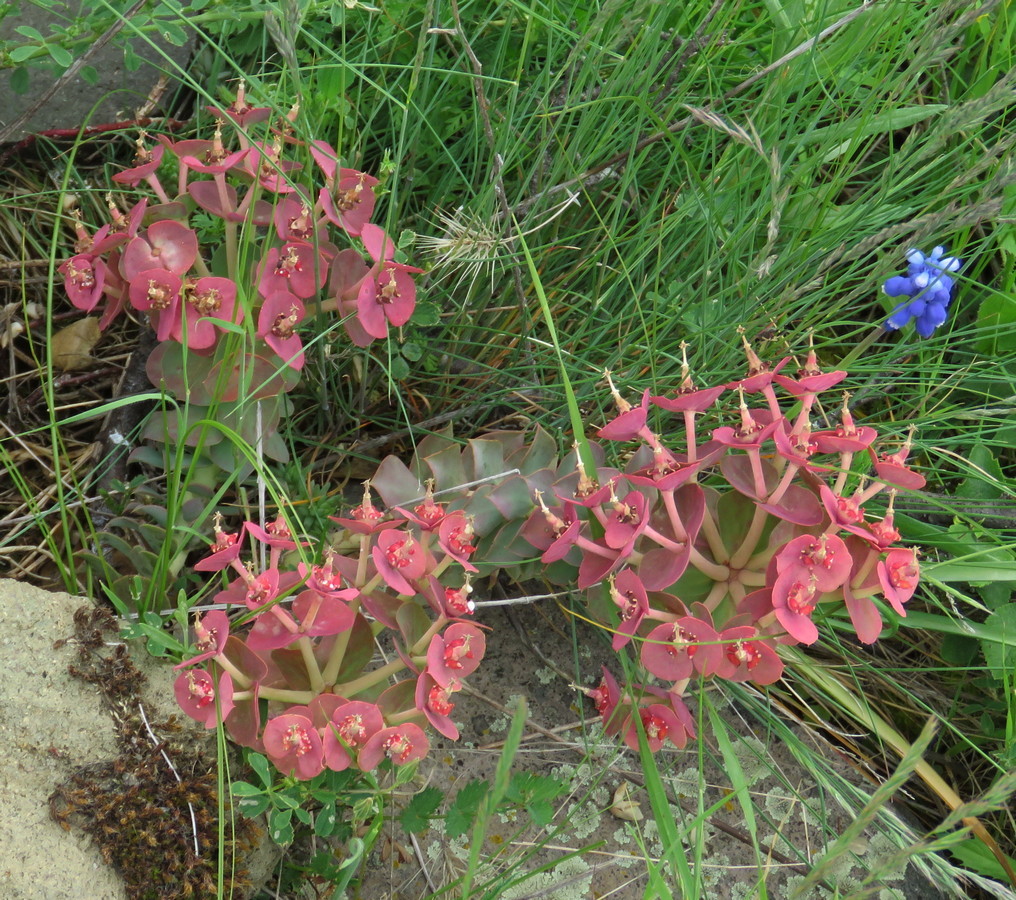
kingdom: Plantae
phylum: Tracheophyta
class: Magnoliopsida
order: Malpighiales
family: Euphorbiaceae
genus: Euphorbia
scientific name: Euphorbia myrsinites
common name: Myrtle spurge
